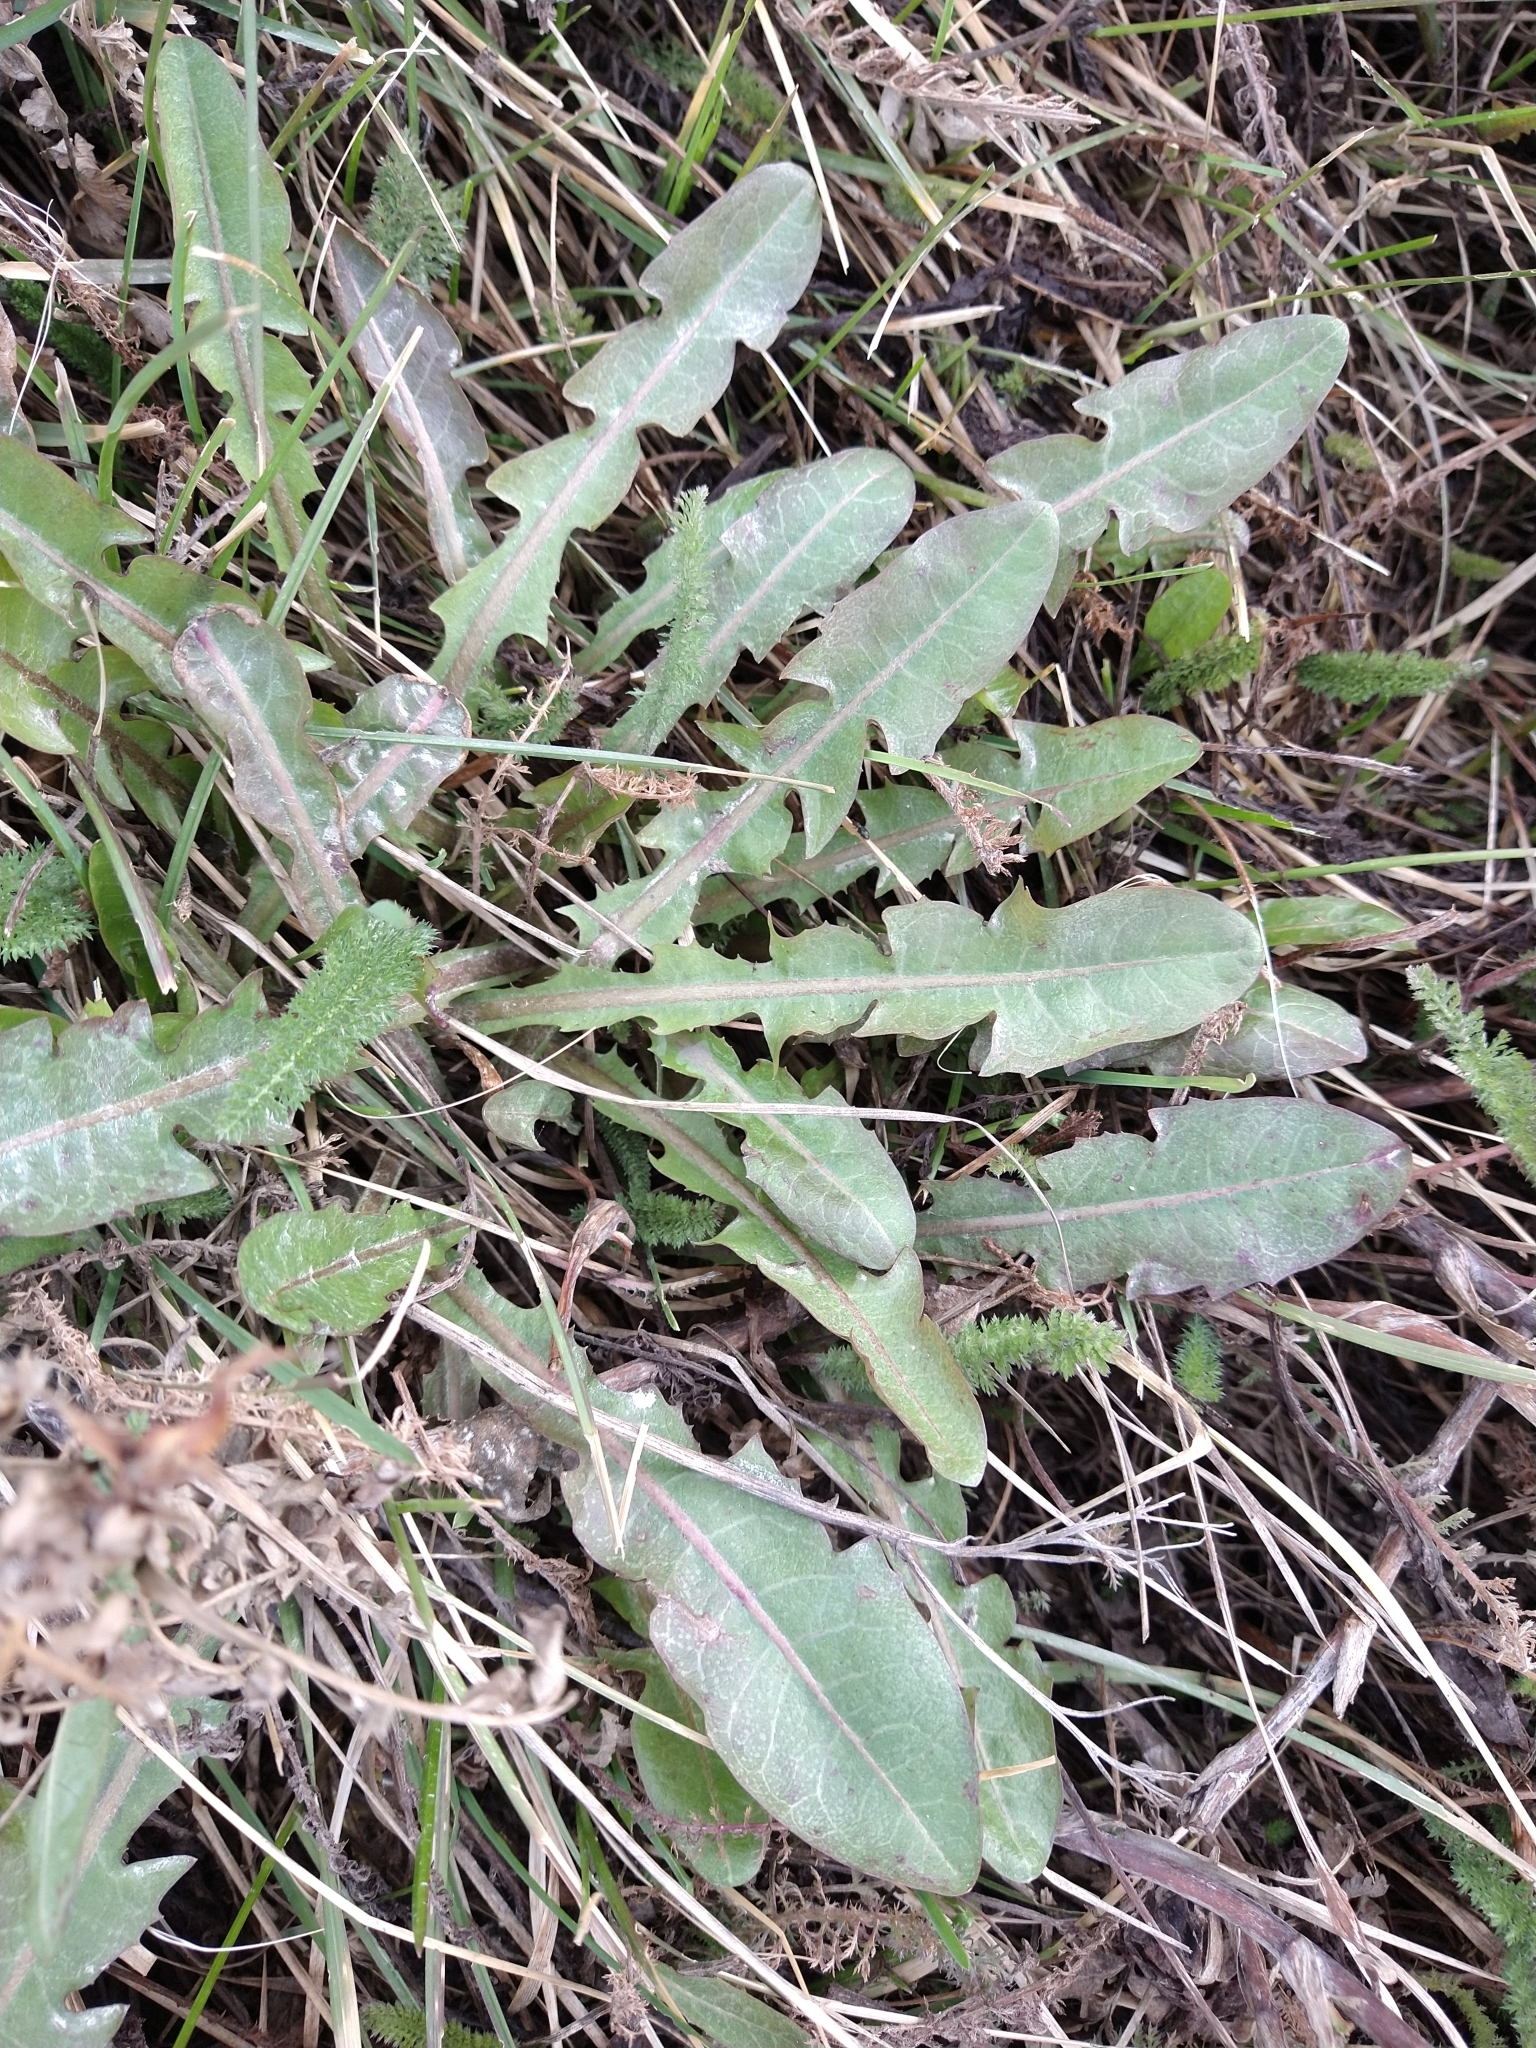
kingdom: Plantae
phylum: Tracheophyta
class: Magnoliopsida
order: Asterales
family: Asteraceae
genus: Taraxacum
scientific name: Taraxacum officinale
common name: Common dandelion
